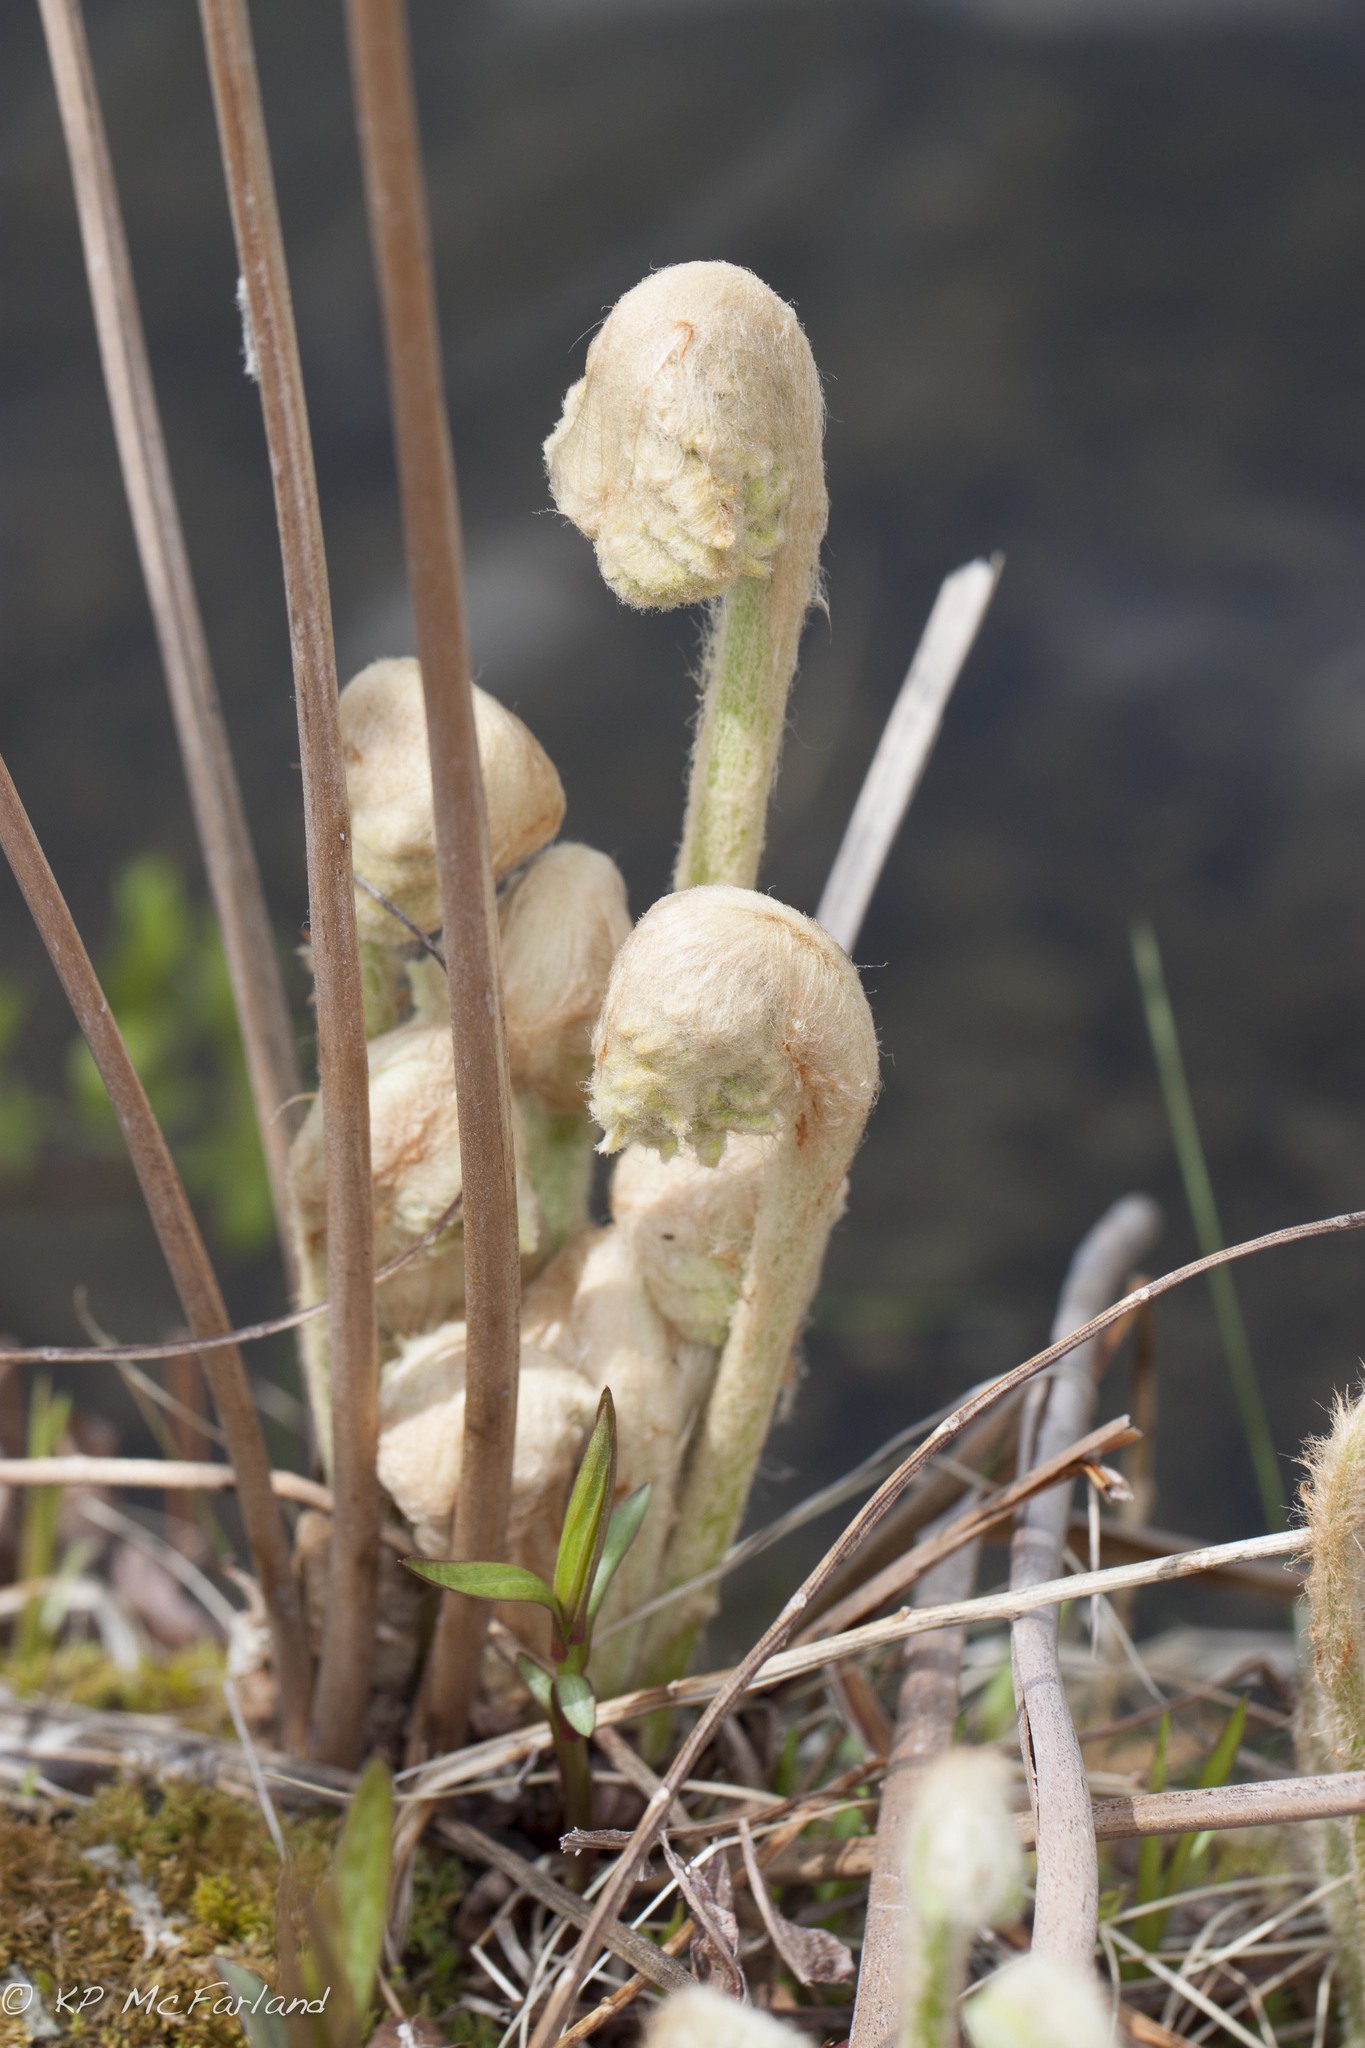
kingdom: Plantae
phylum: Tracheophyta
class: Polypodiopsida
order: Osmundales
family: Osmundaceae
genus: Osmundastrum
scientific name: Osmundastrum cinnamomeum
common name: Cinnamon fern
